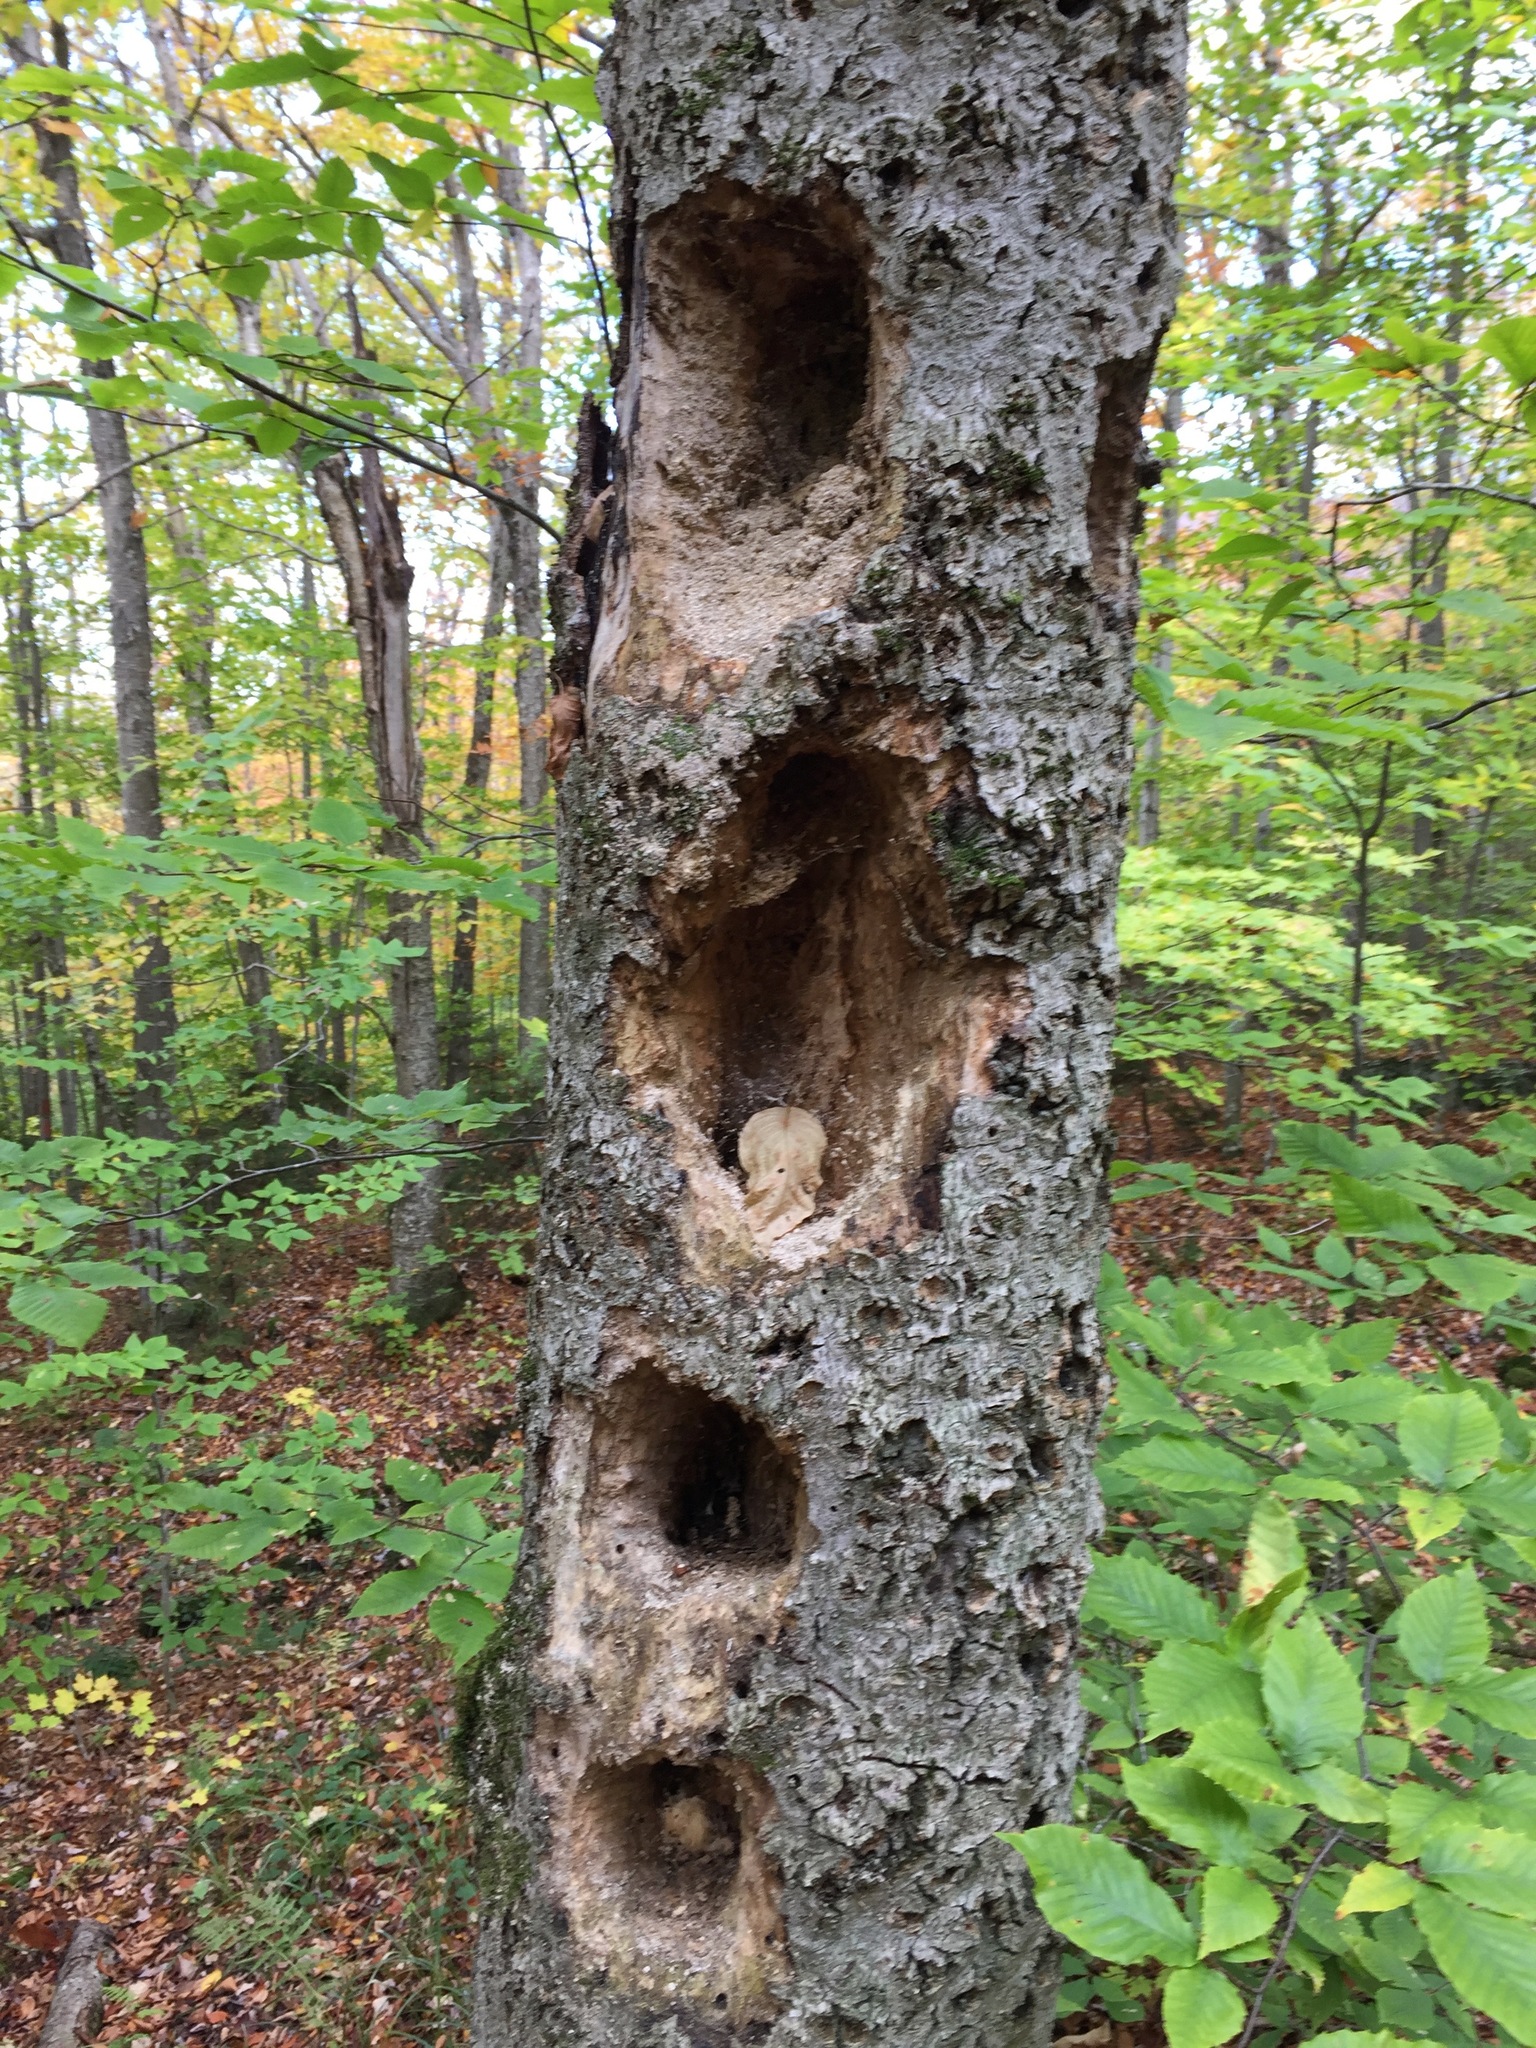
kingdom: Animalia
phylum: Chordata
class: Aves
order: Piciformes
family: Picidae
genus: Dryocopus
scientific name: Dryocopus pileatus
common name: Pileated woodpecker
